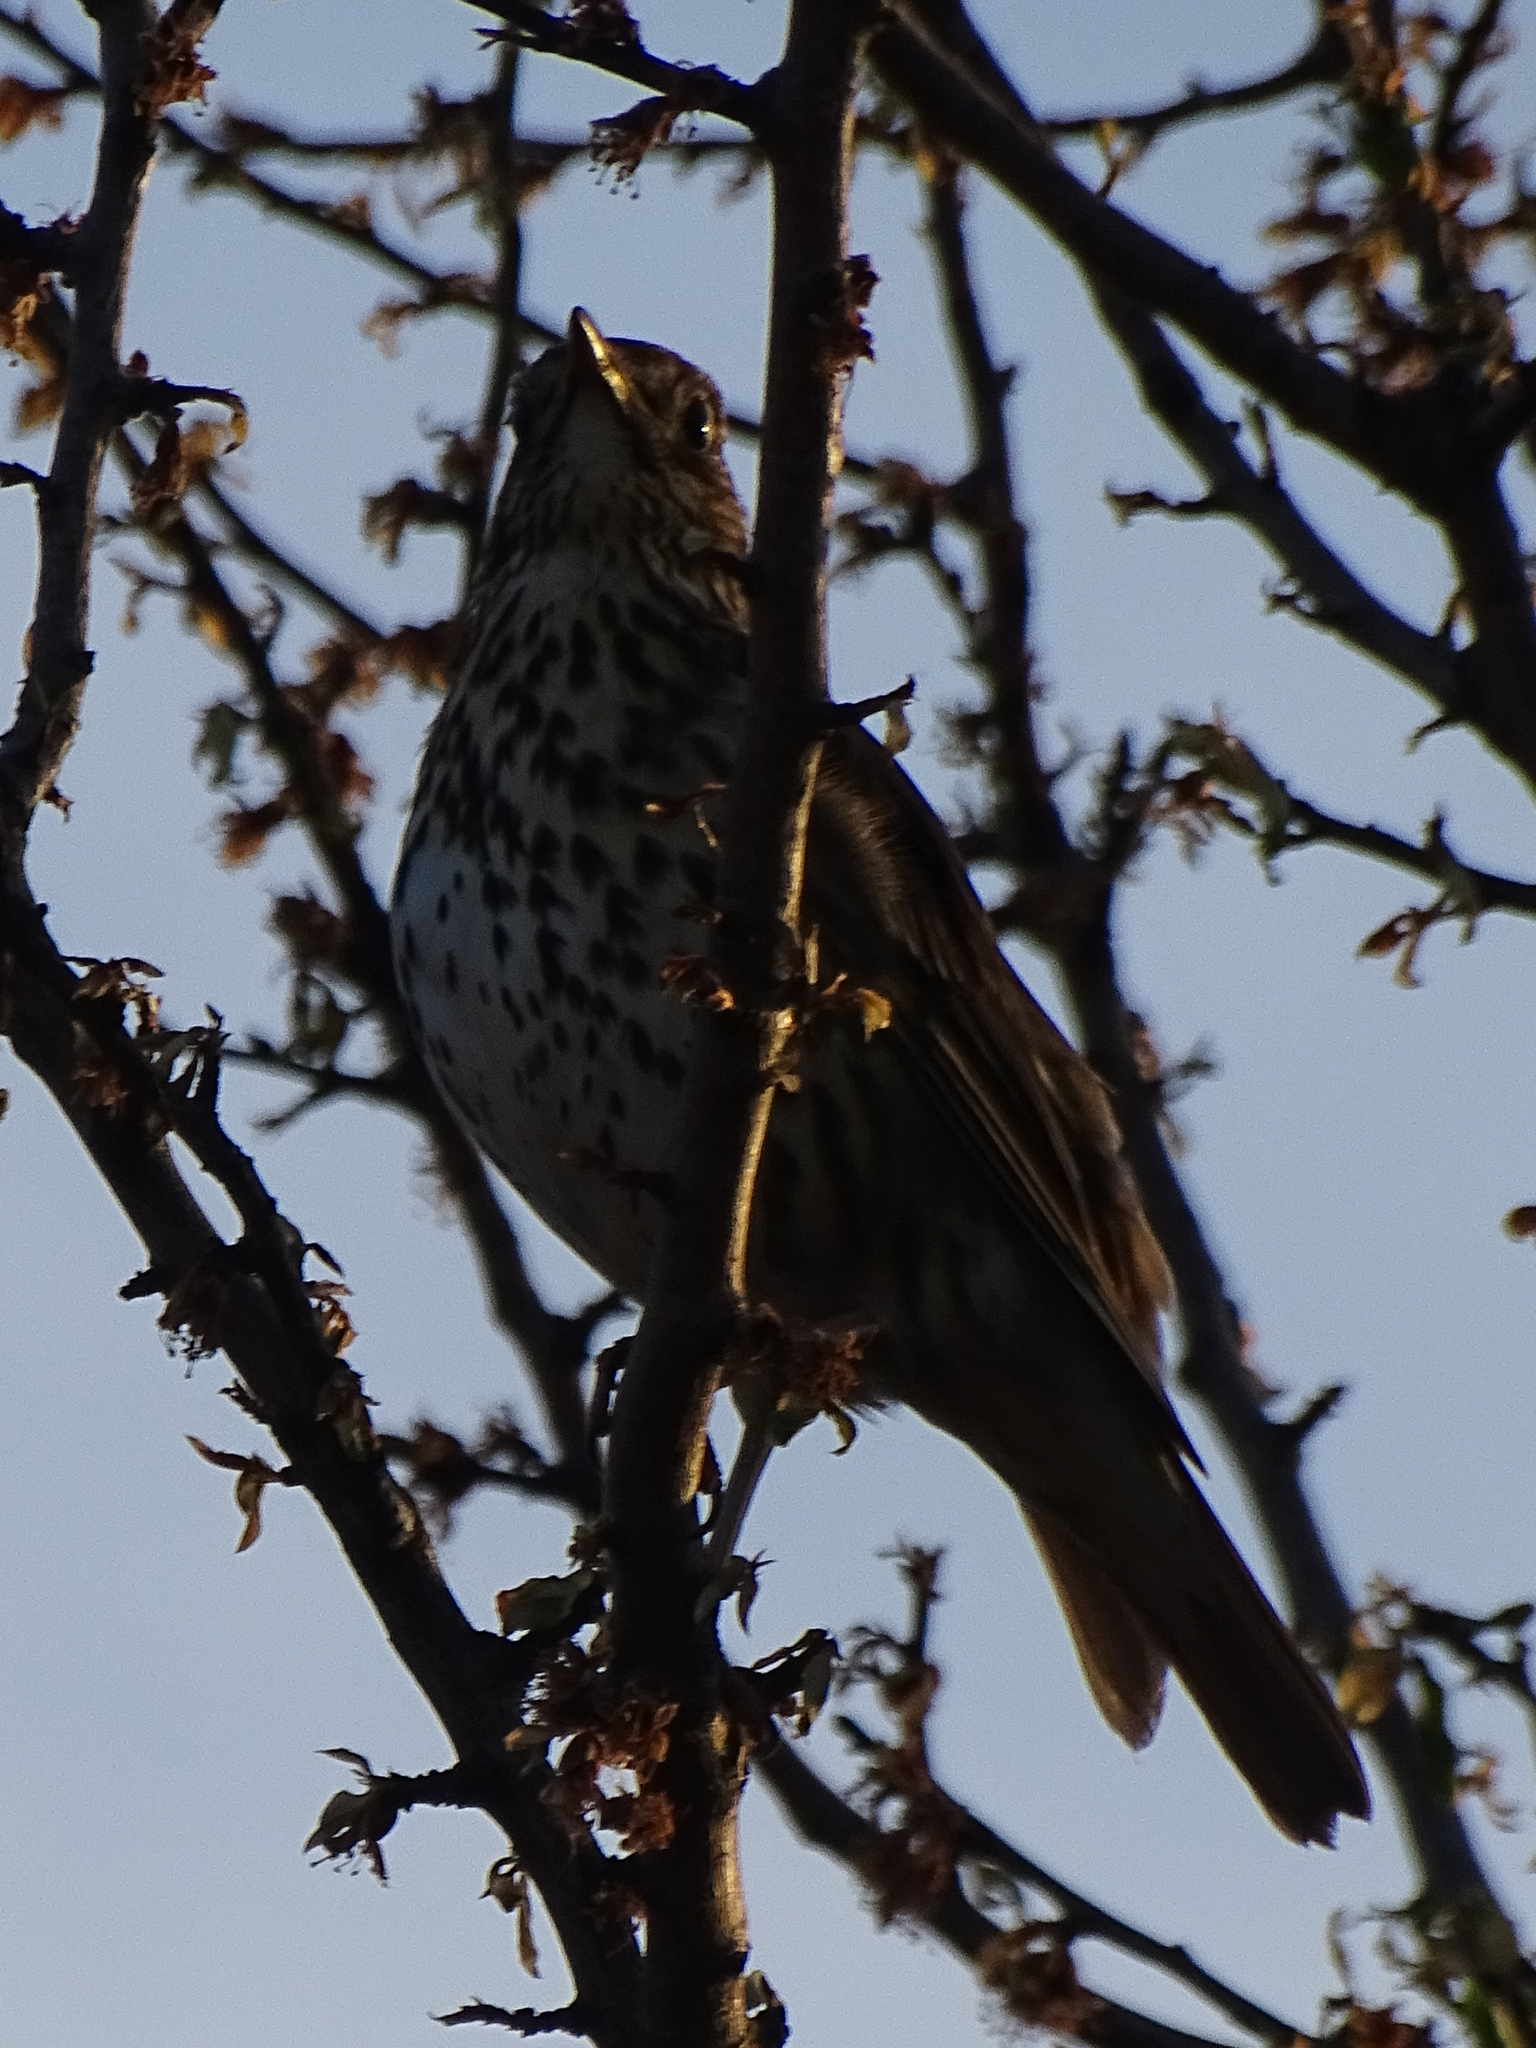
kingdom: Animalia
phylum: Chordata
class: Aves
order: Passeriformes
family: Turdidae
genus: Turdus
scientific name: Turdus philomelos
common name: Song thrush
